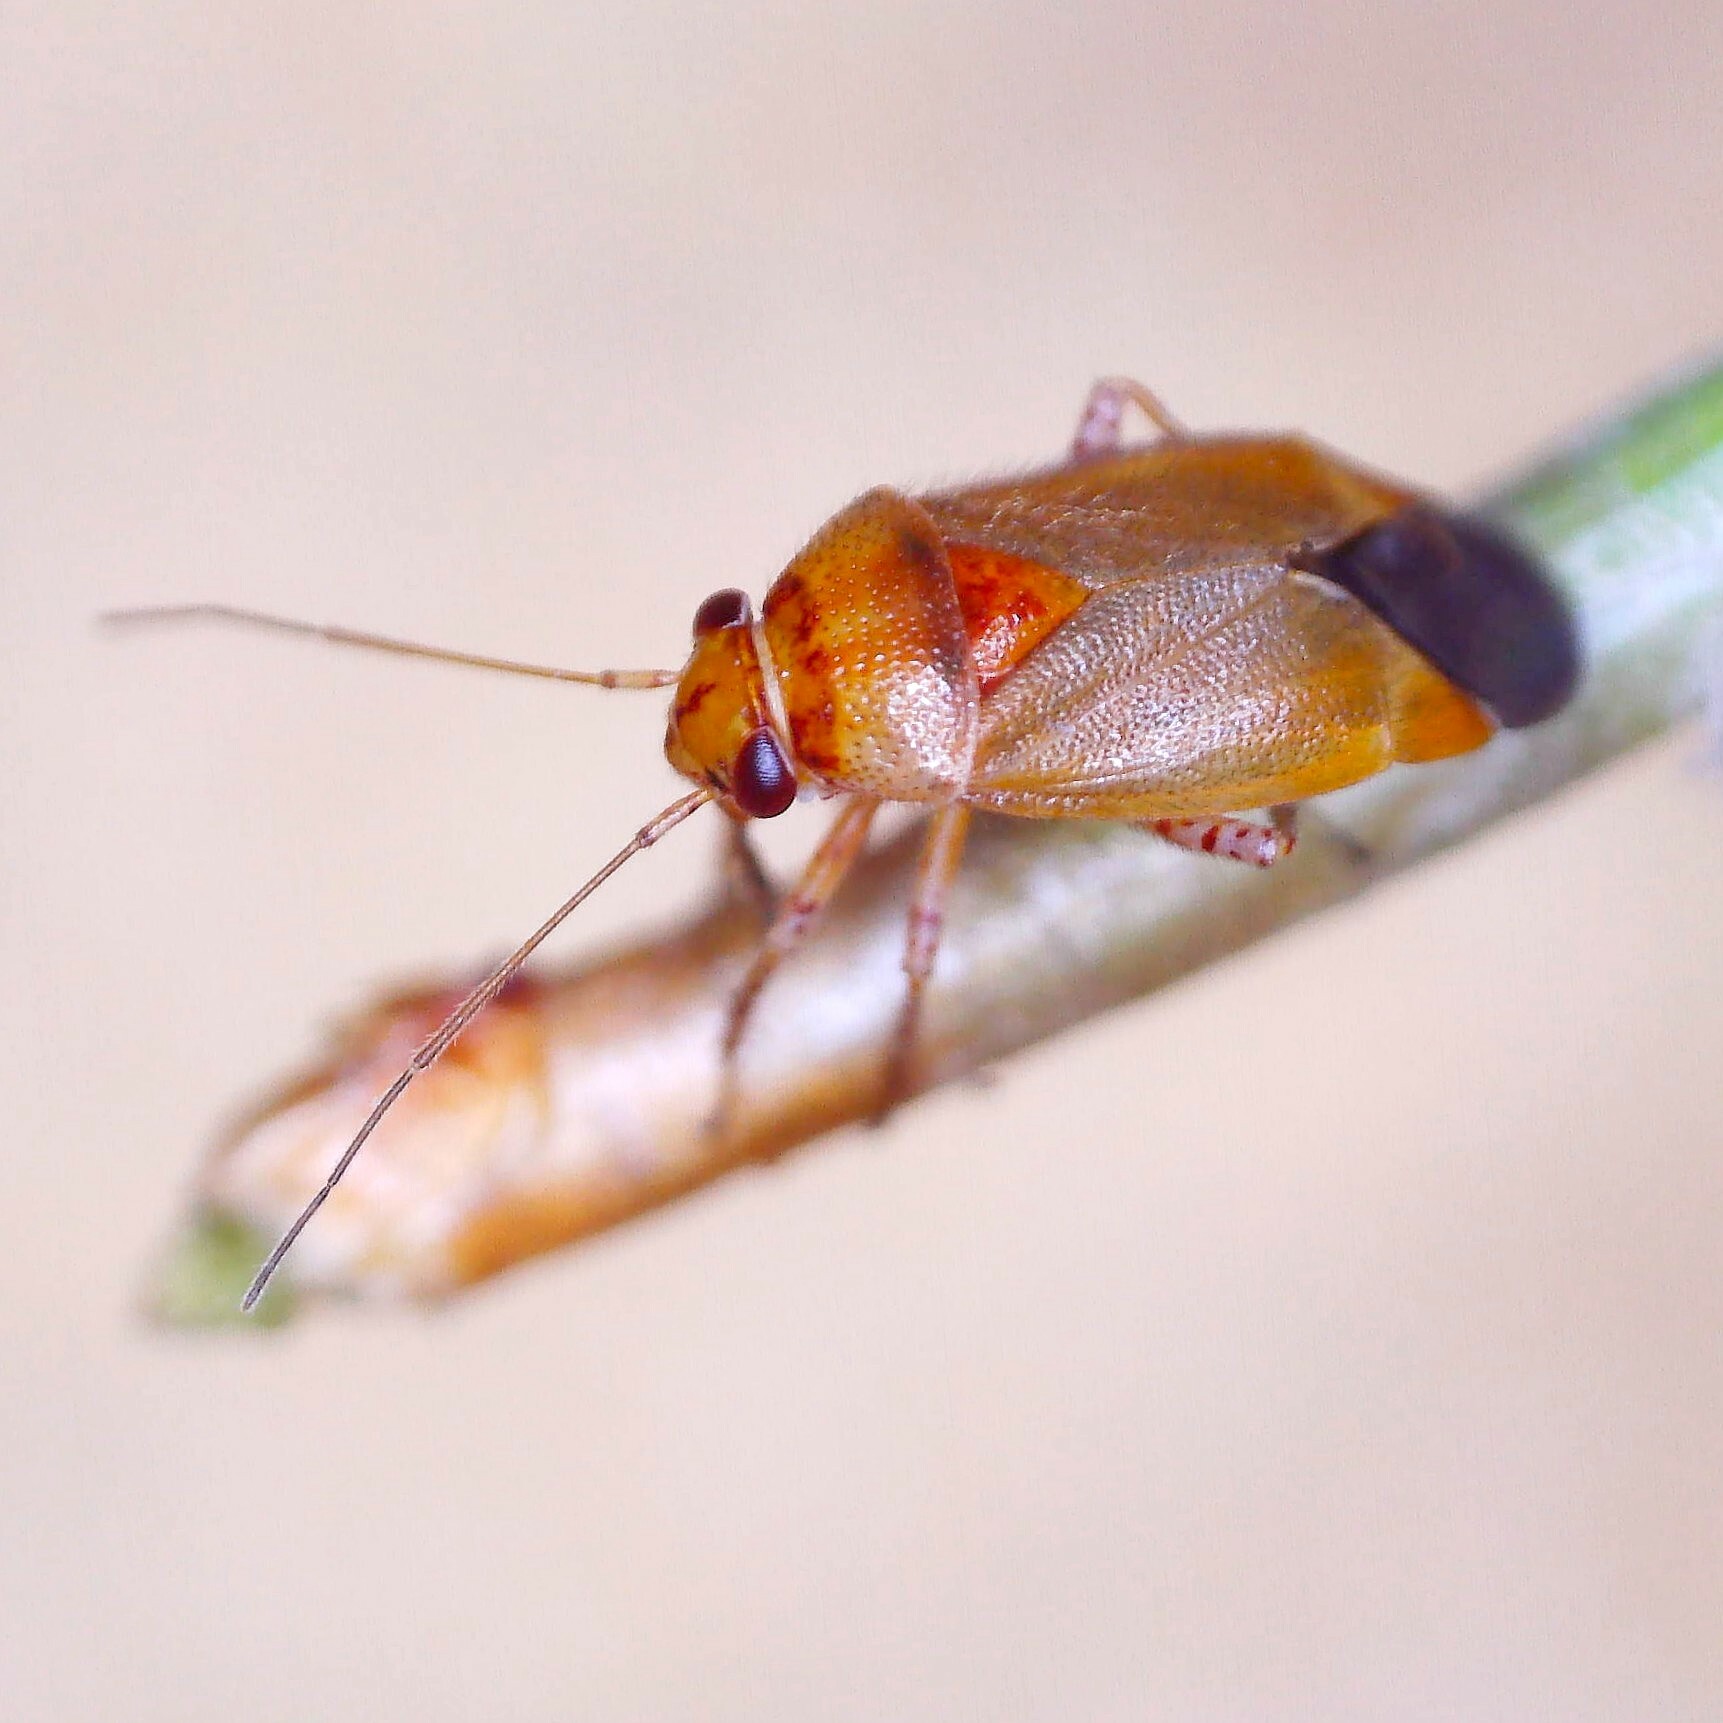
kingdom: Animalia
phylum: Arthropoda
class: Insecta
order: Hemiptera
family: Miridae
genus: Camptozygum
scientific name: Camptozygum aequale
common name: Plant bug
